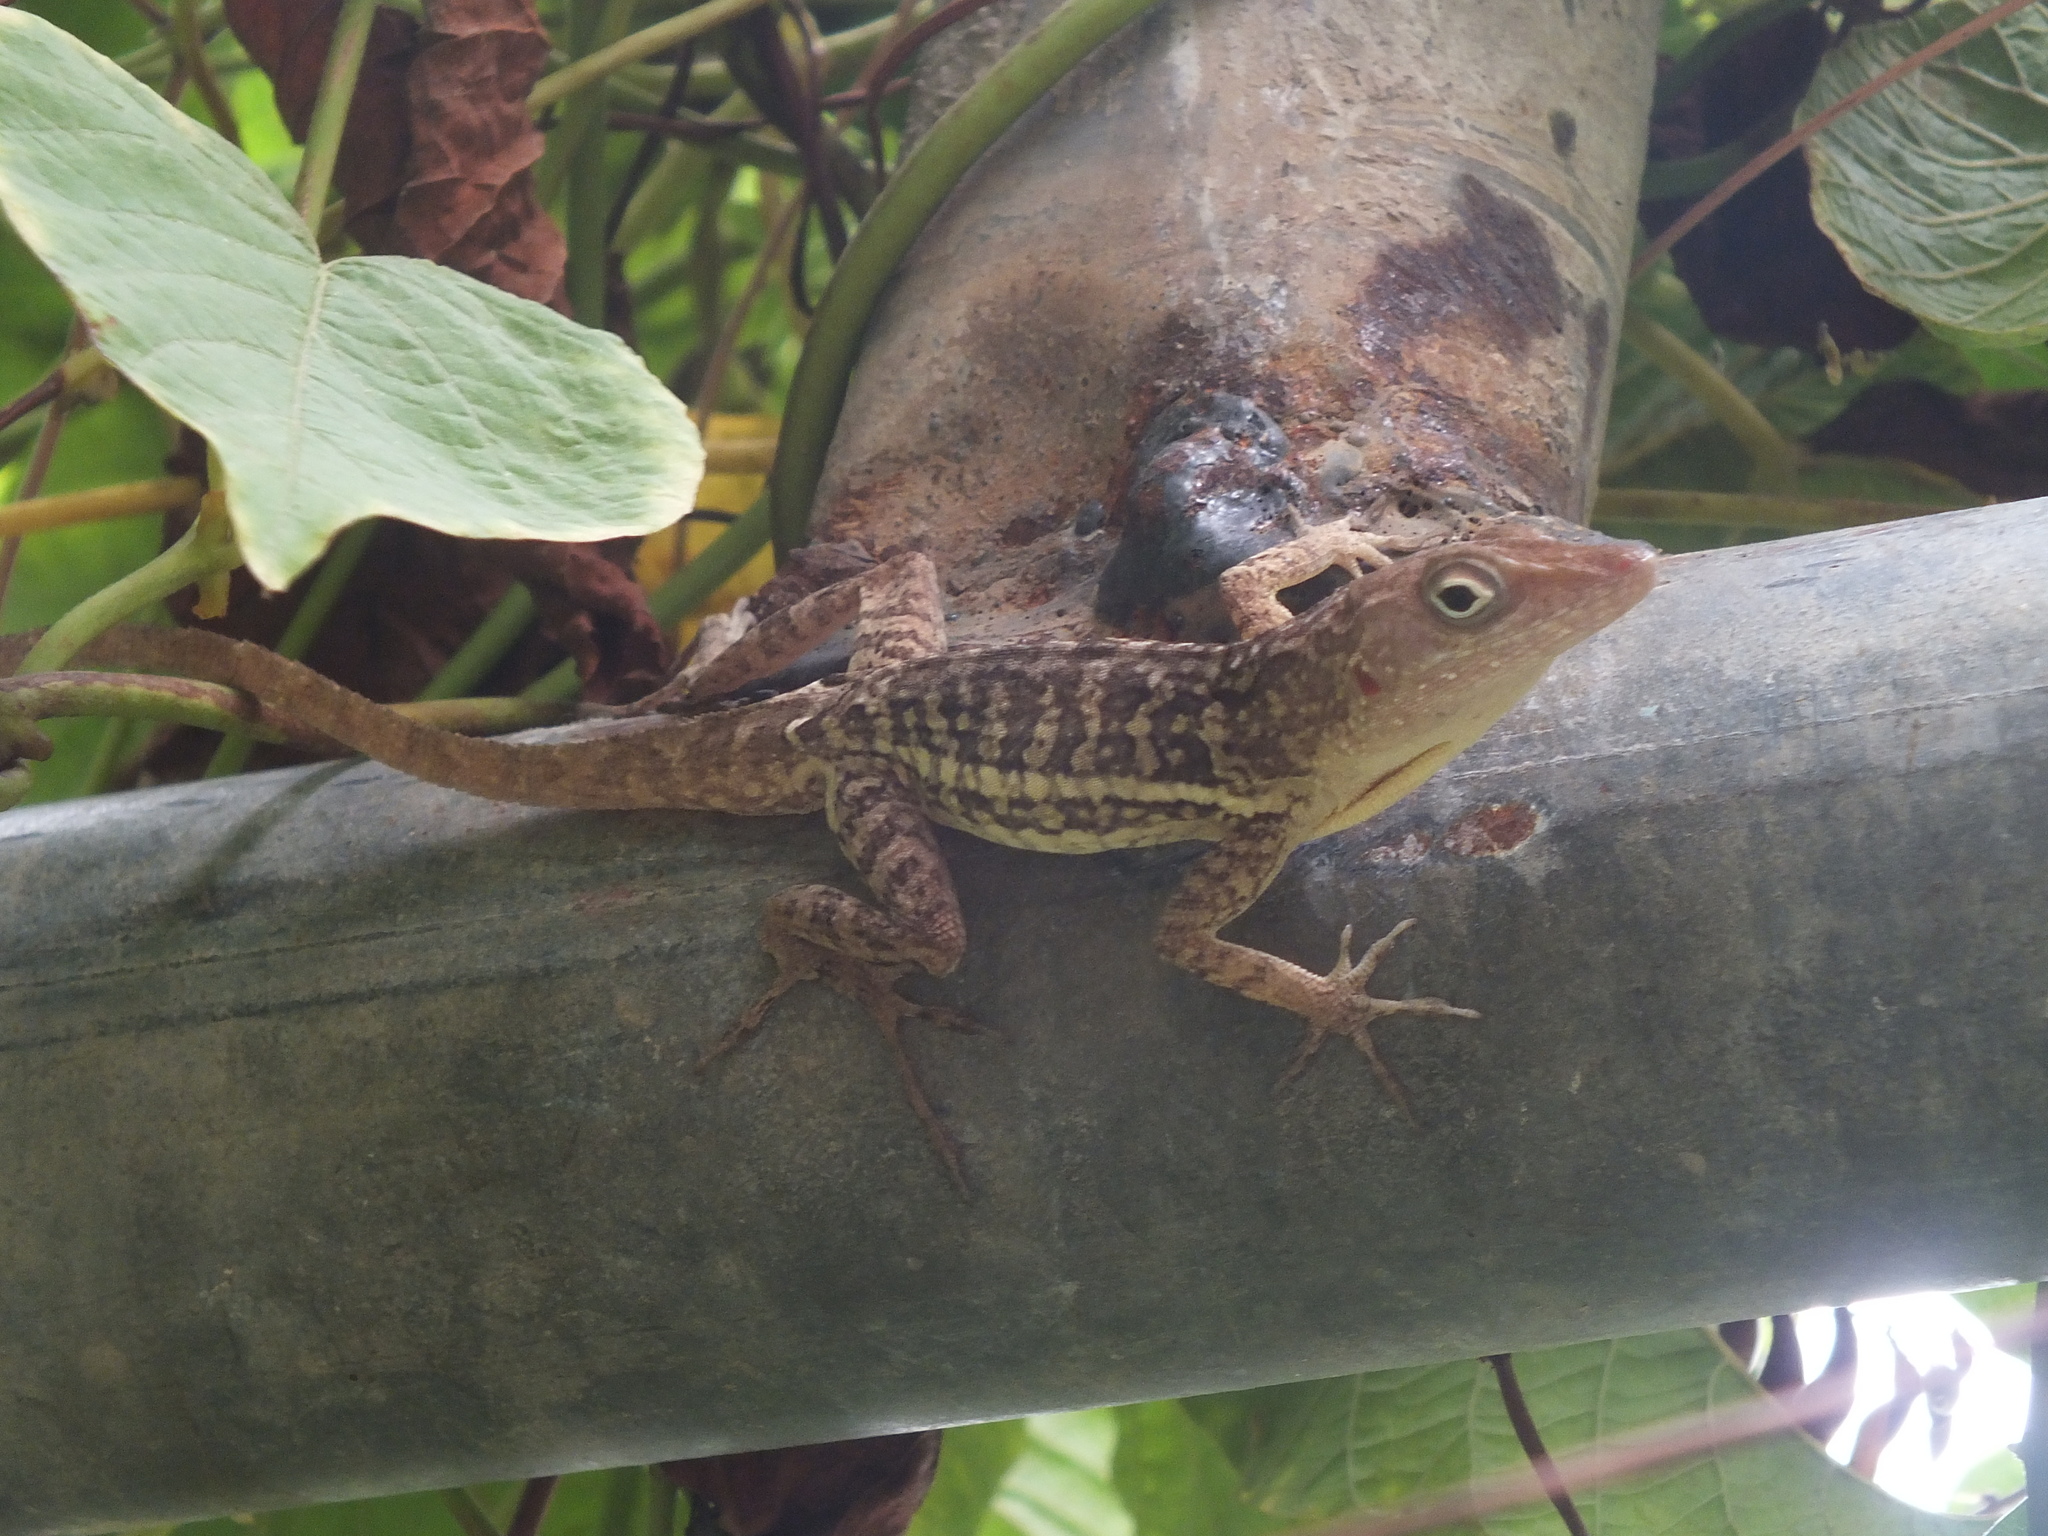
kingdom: Animalia
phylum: Chordata
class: Squamata
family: Dactyloidae
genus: Anolis
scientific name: Anolis lineatopus
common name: Stripefoot anole
